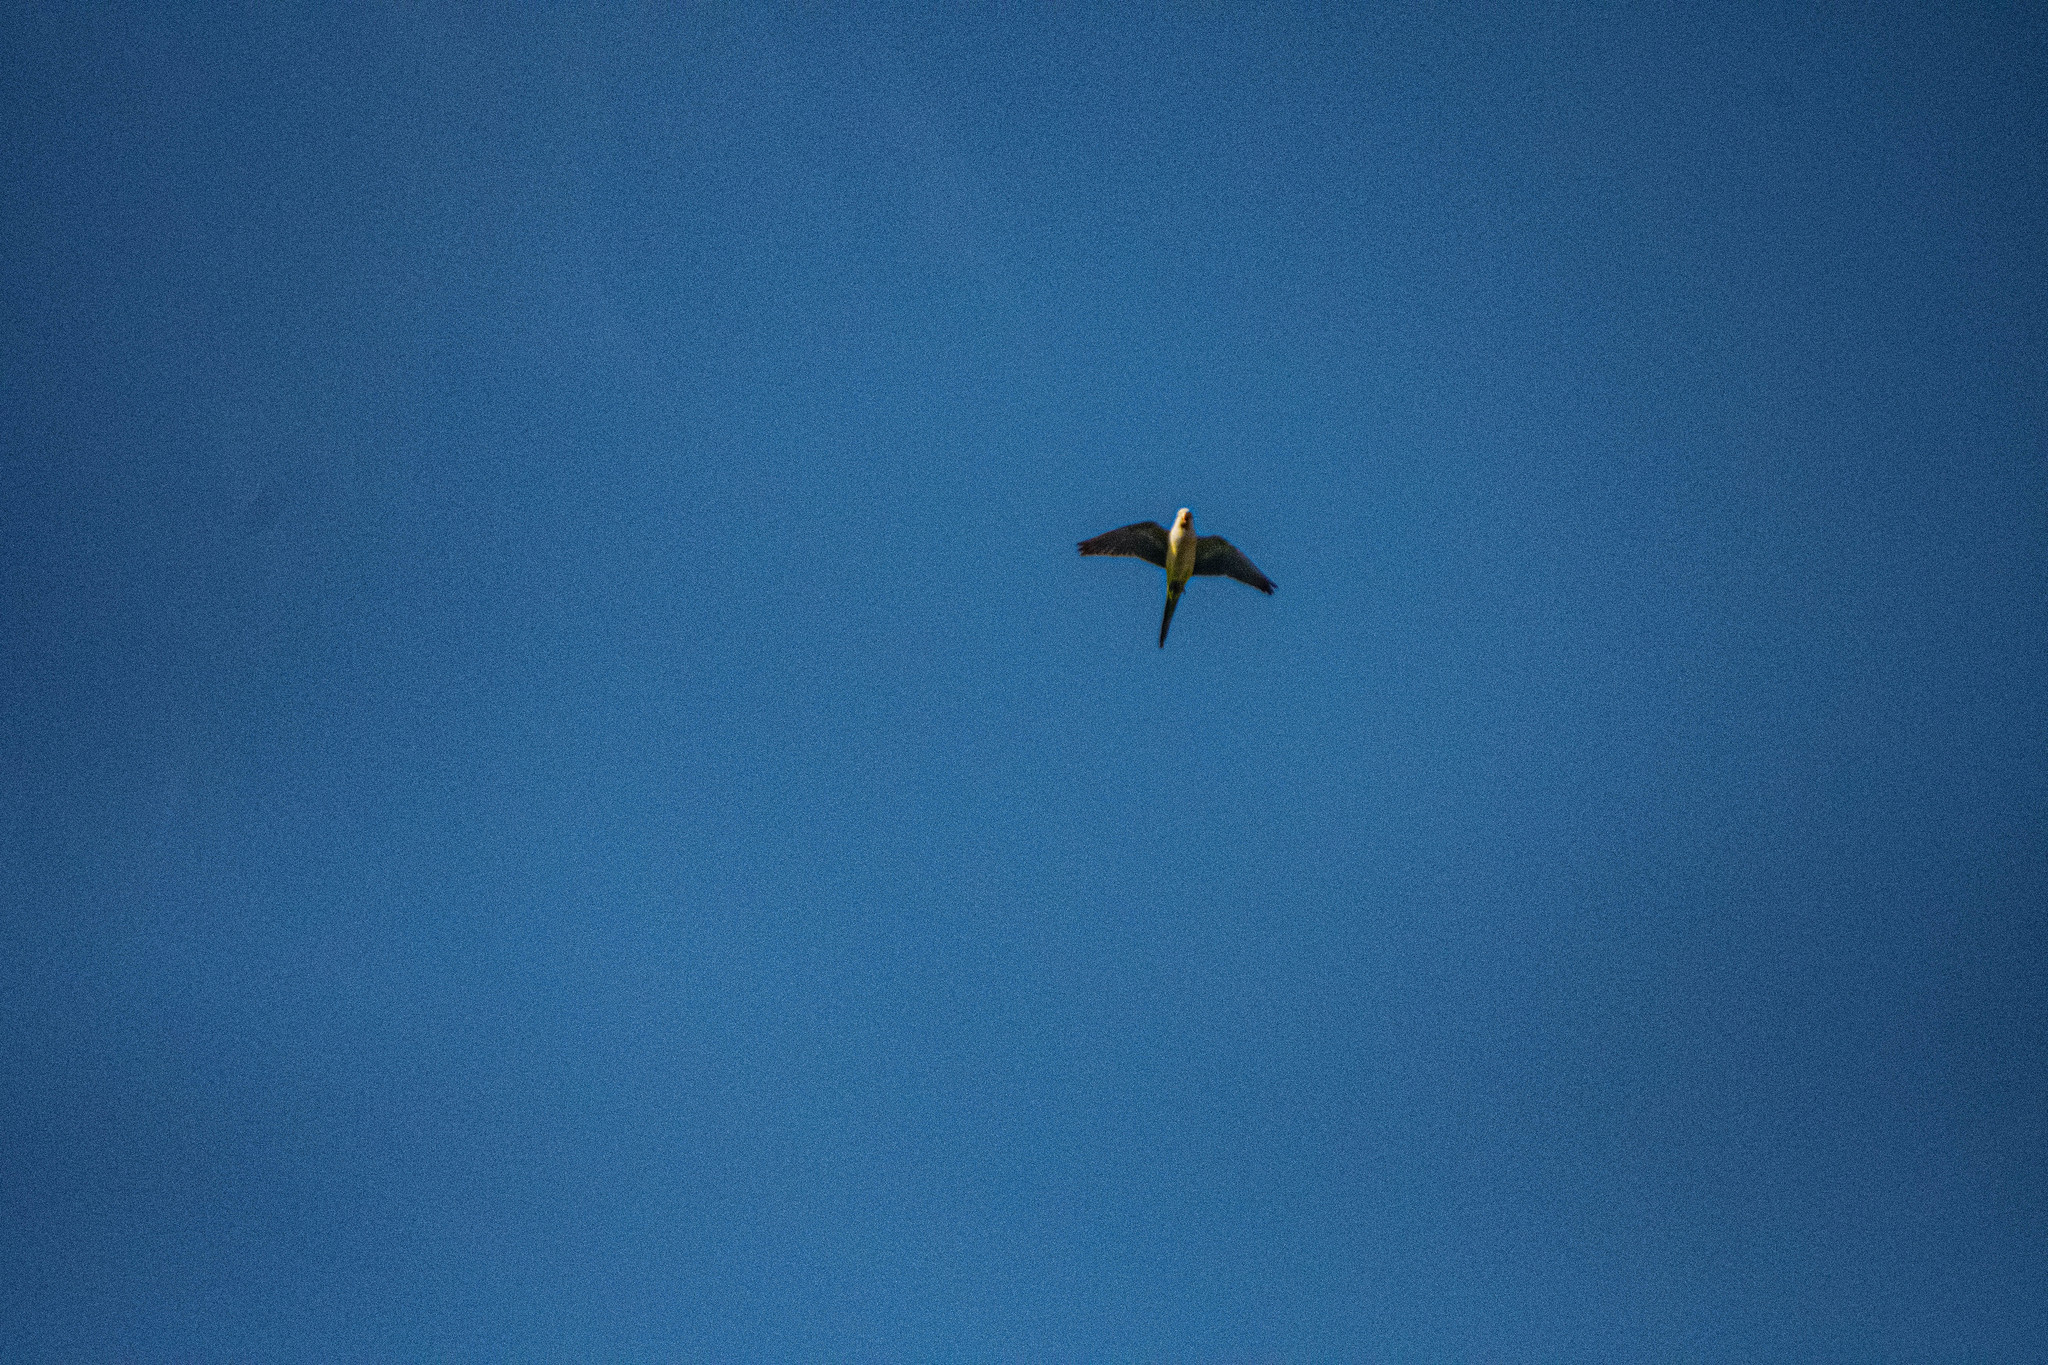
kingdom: Animalia
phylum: Chordata
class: Aves
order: Psittaciformes
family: Psittacidae
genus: Myiopsitta
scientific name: Myiopsitta monachus
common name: Monk parakeet
